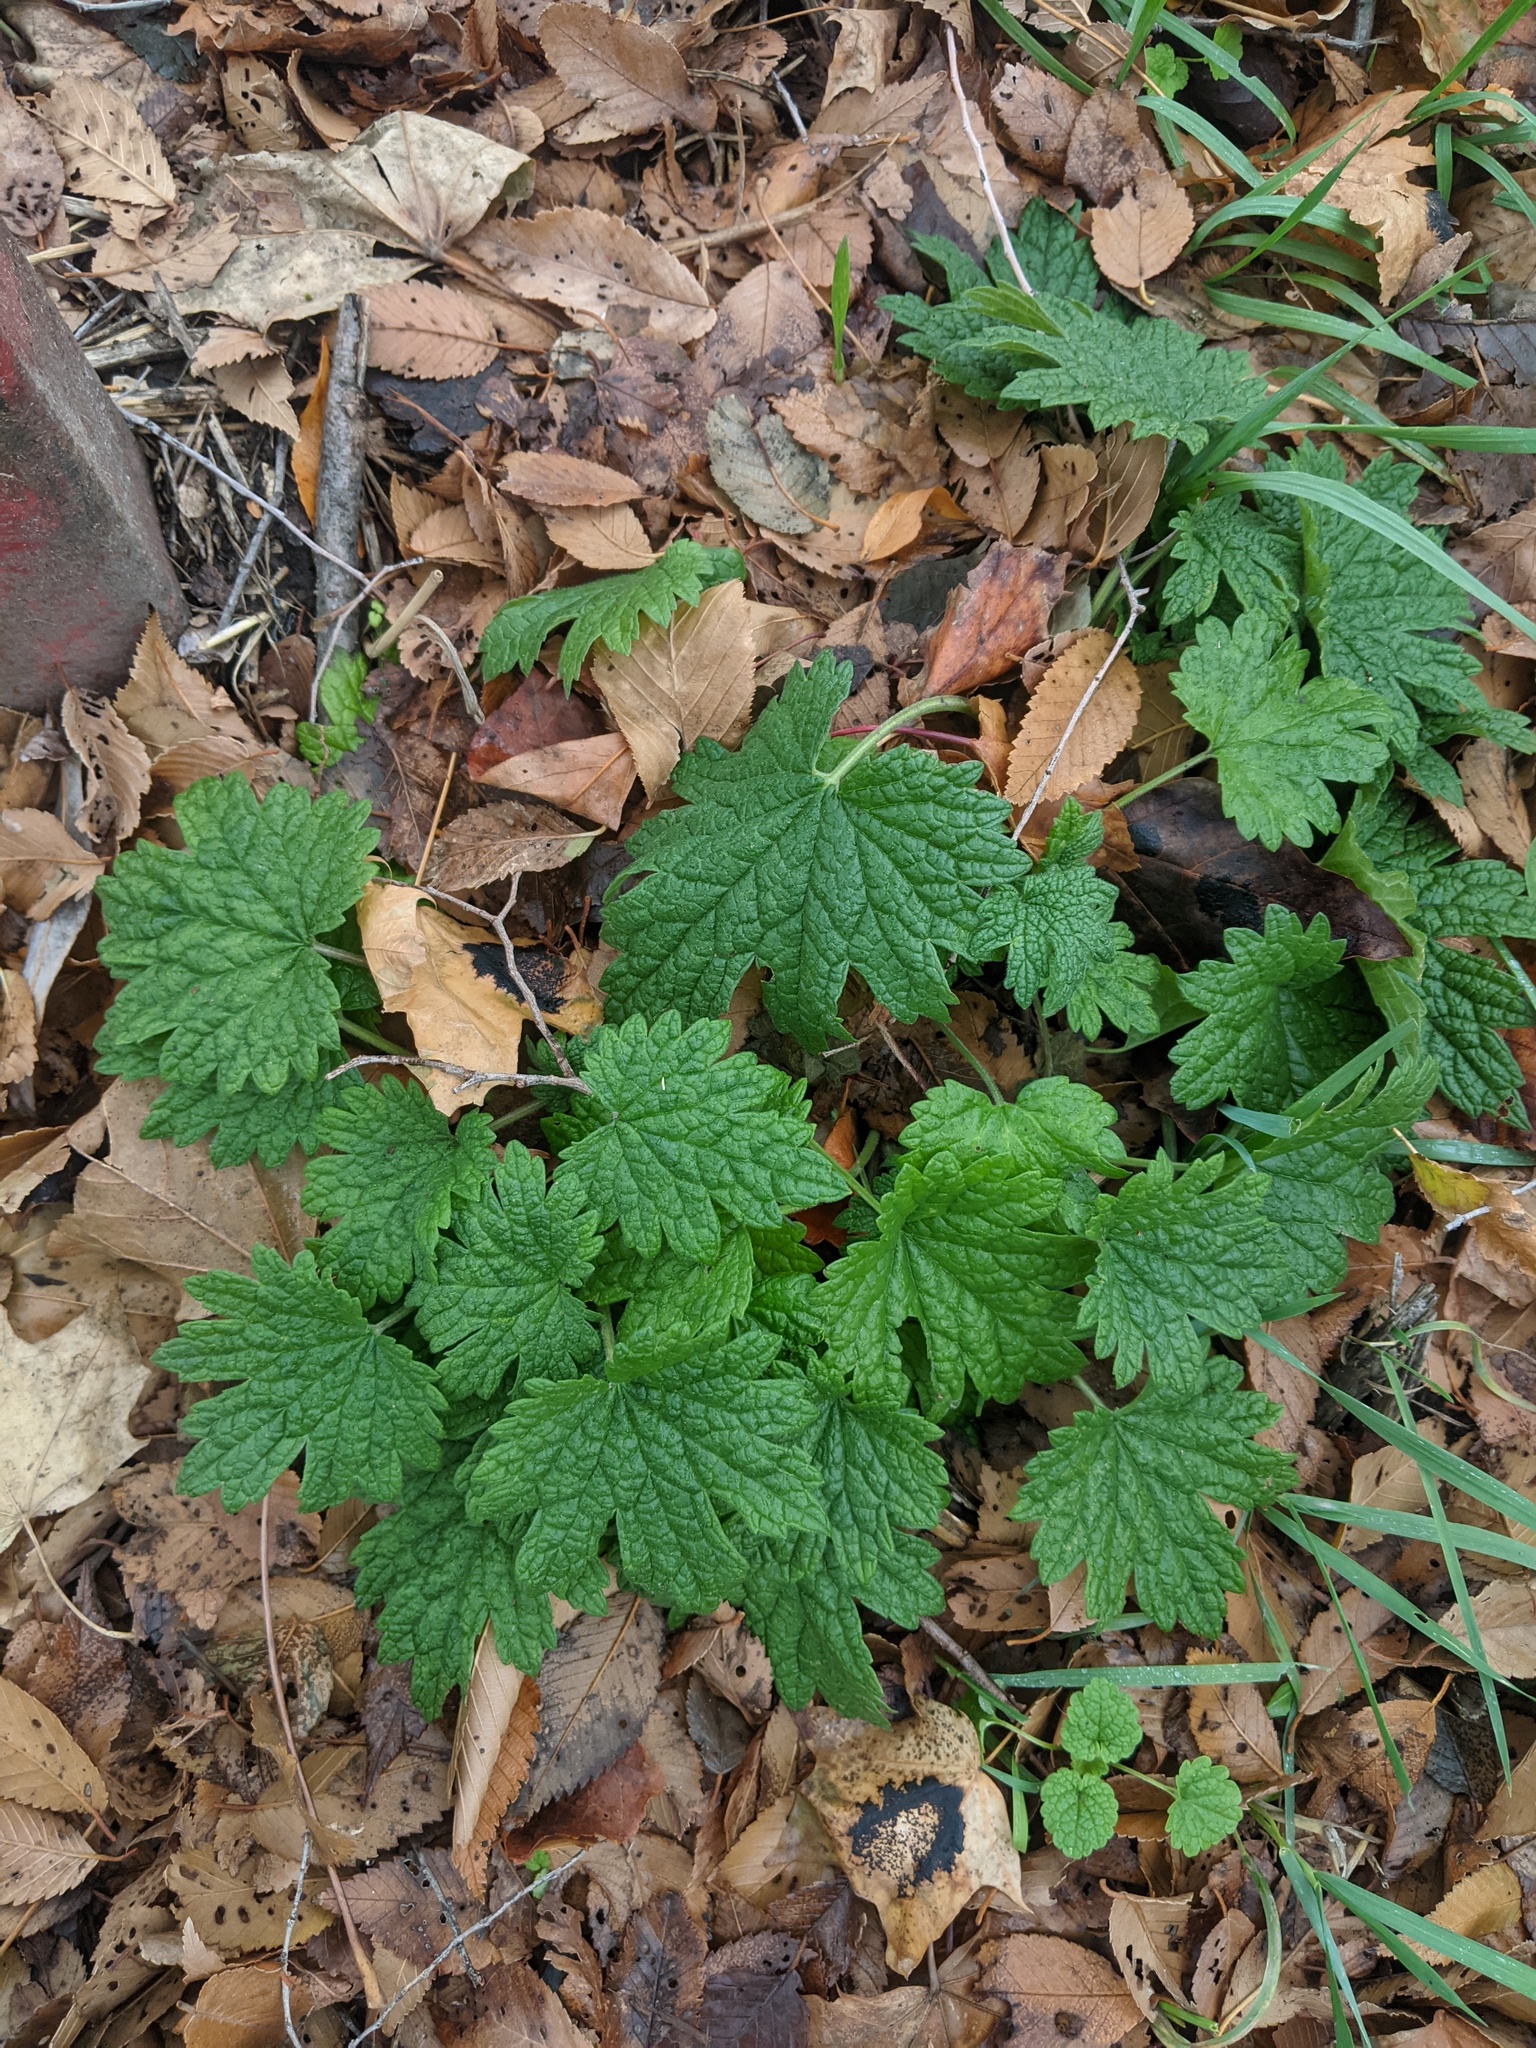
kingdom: Plantae
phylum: Tracheophyta
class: Magnoliopsida
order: Lamiales
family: Lamiaceae
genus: Leonurus
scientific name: Leonurus cardiaca
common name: Motherwort
